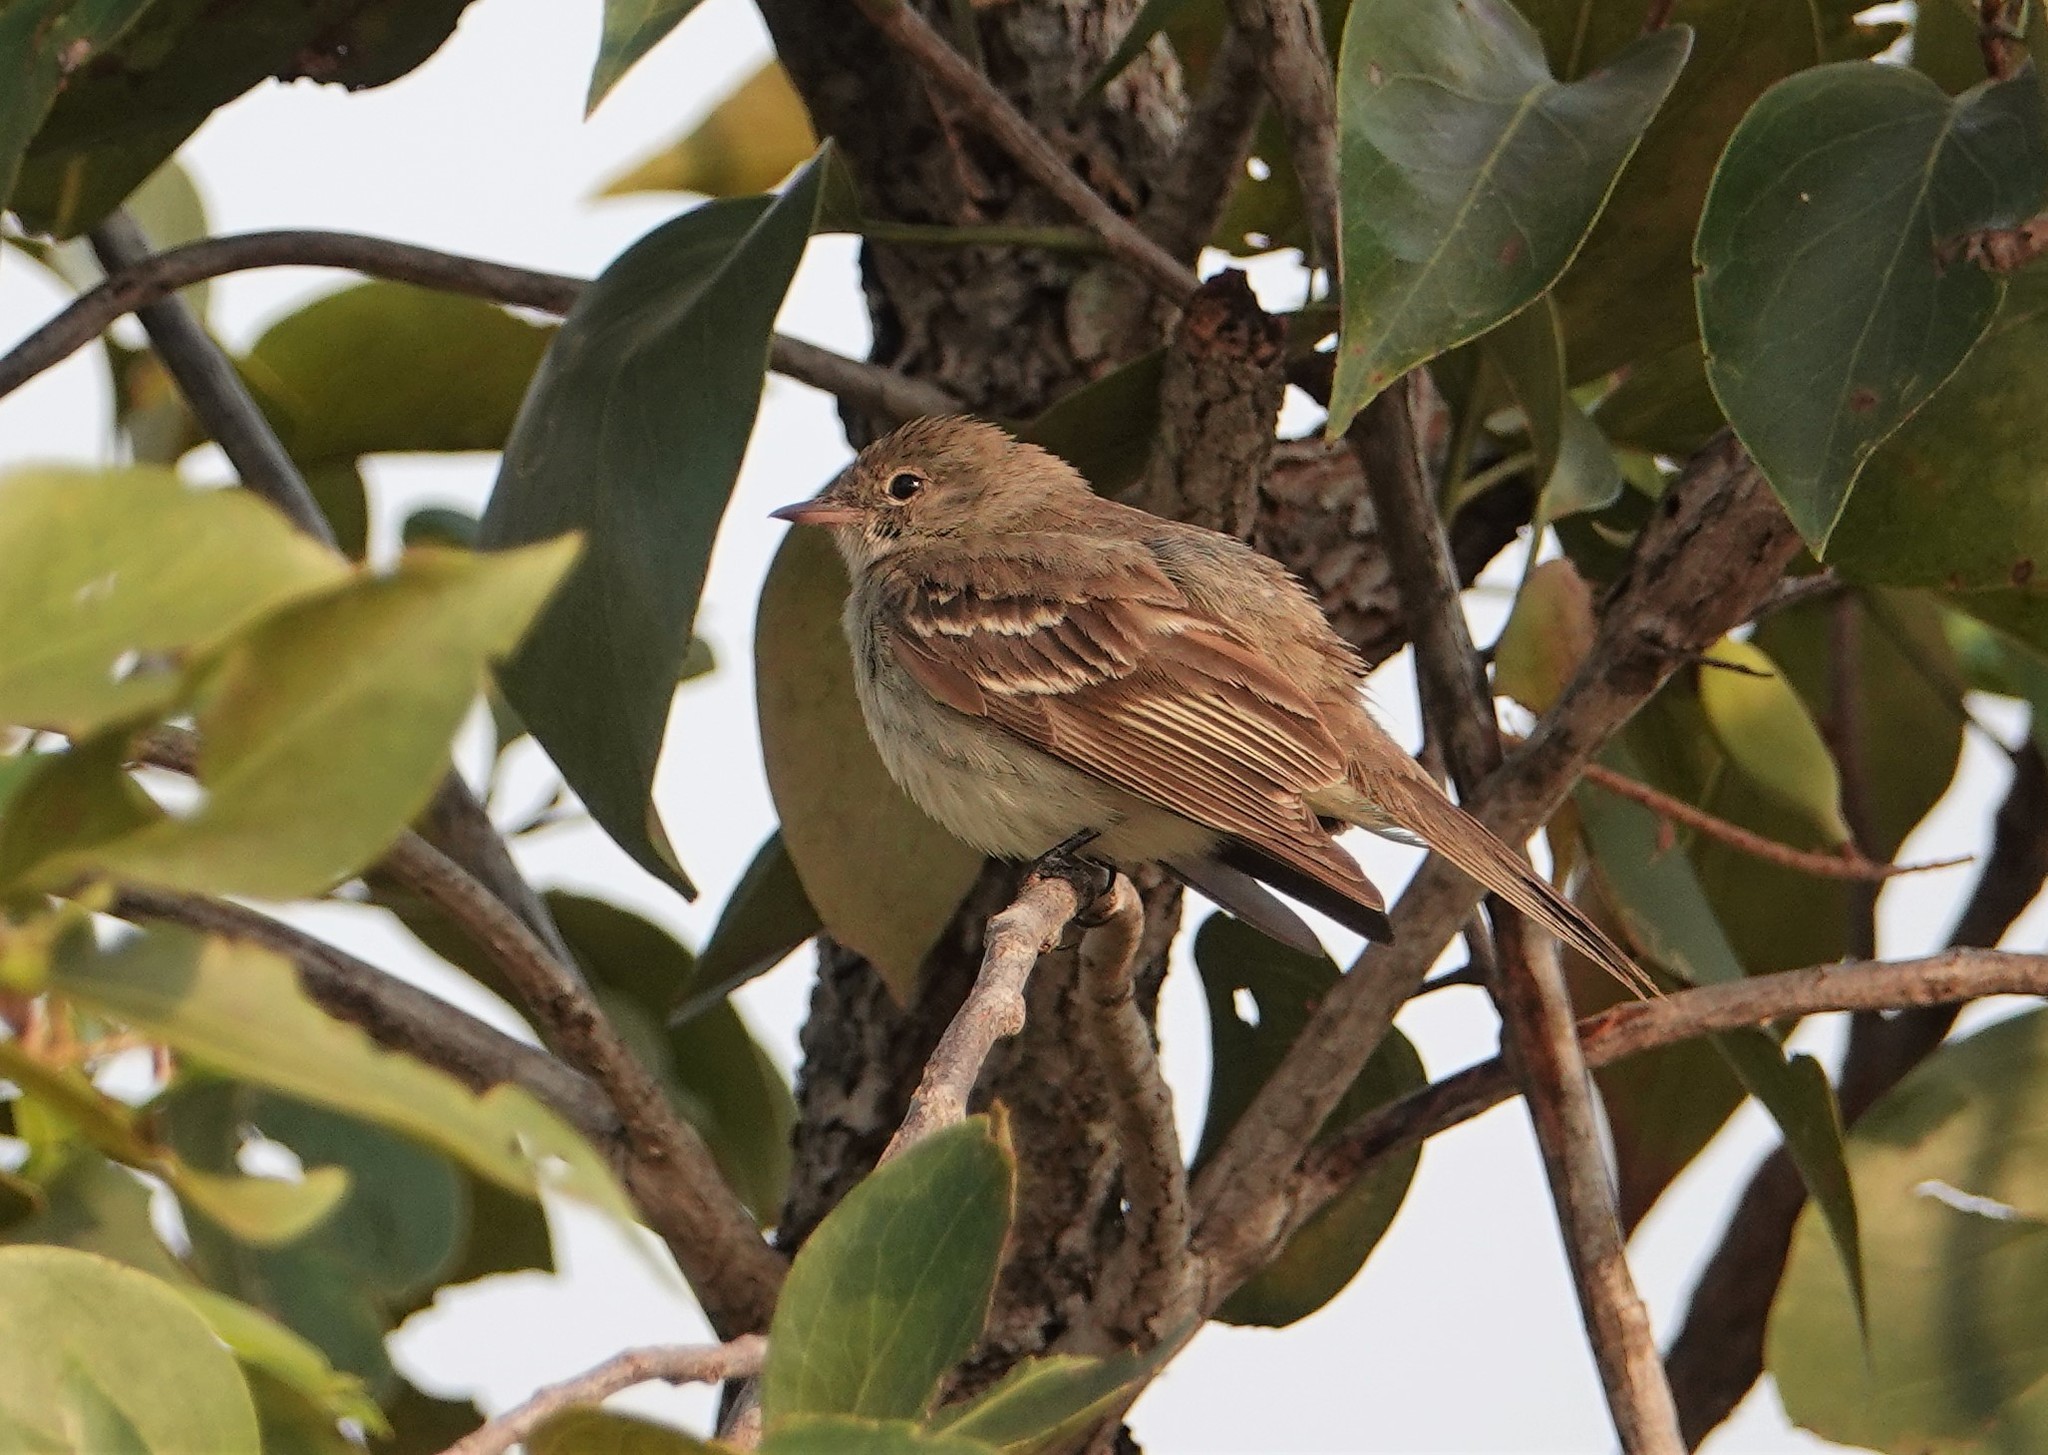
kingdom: Animalia
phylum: Chordata
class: Aves
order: Passeriformes
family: Tyrannidae
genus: Elaenia
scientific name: Elaenia chiriquensis
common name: Lesser elaenia
